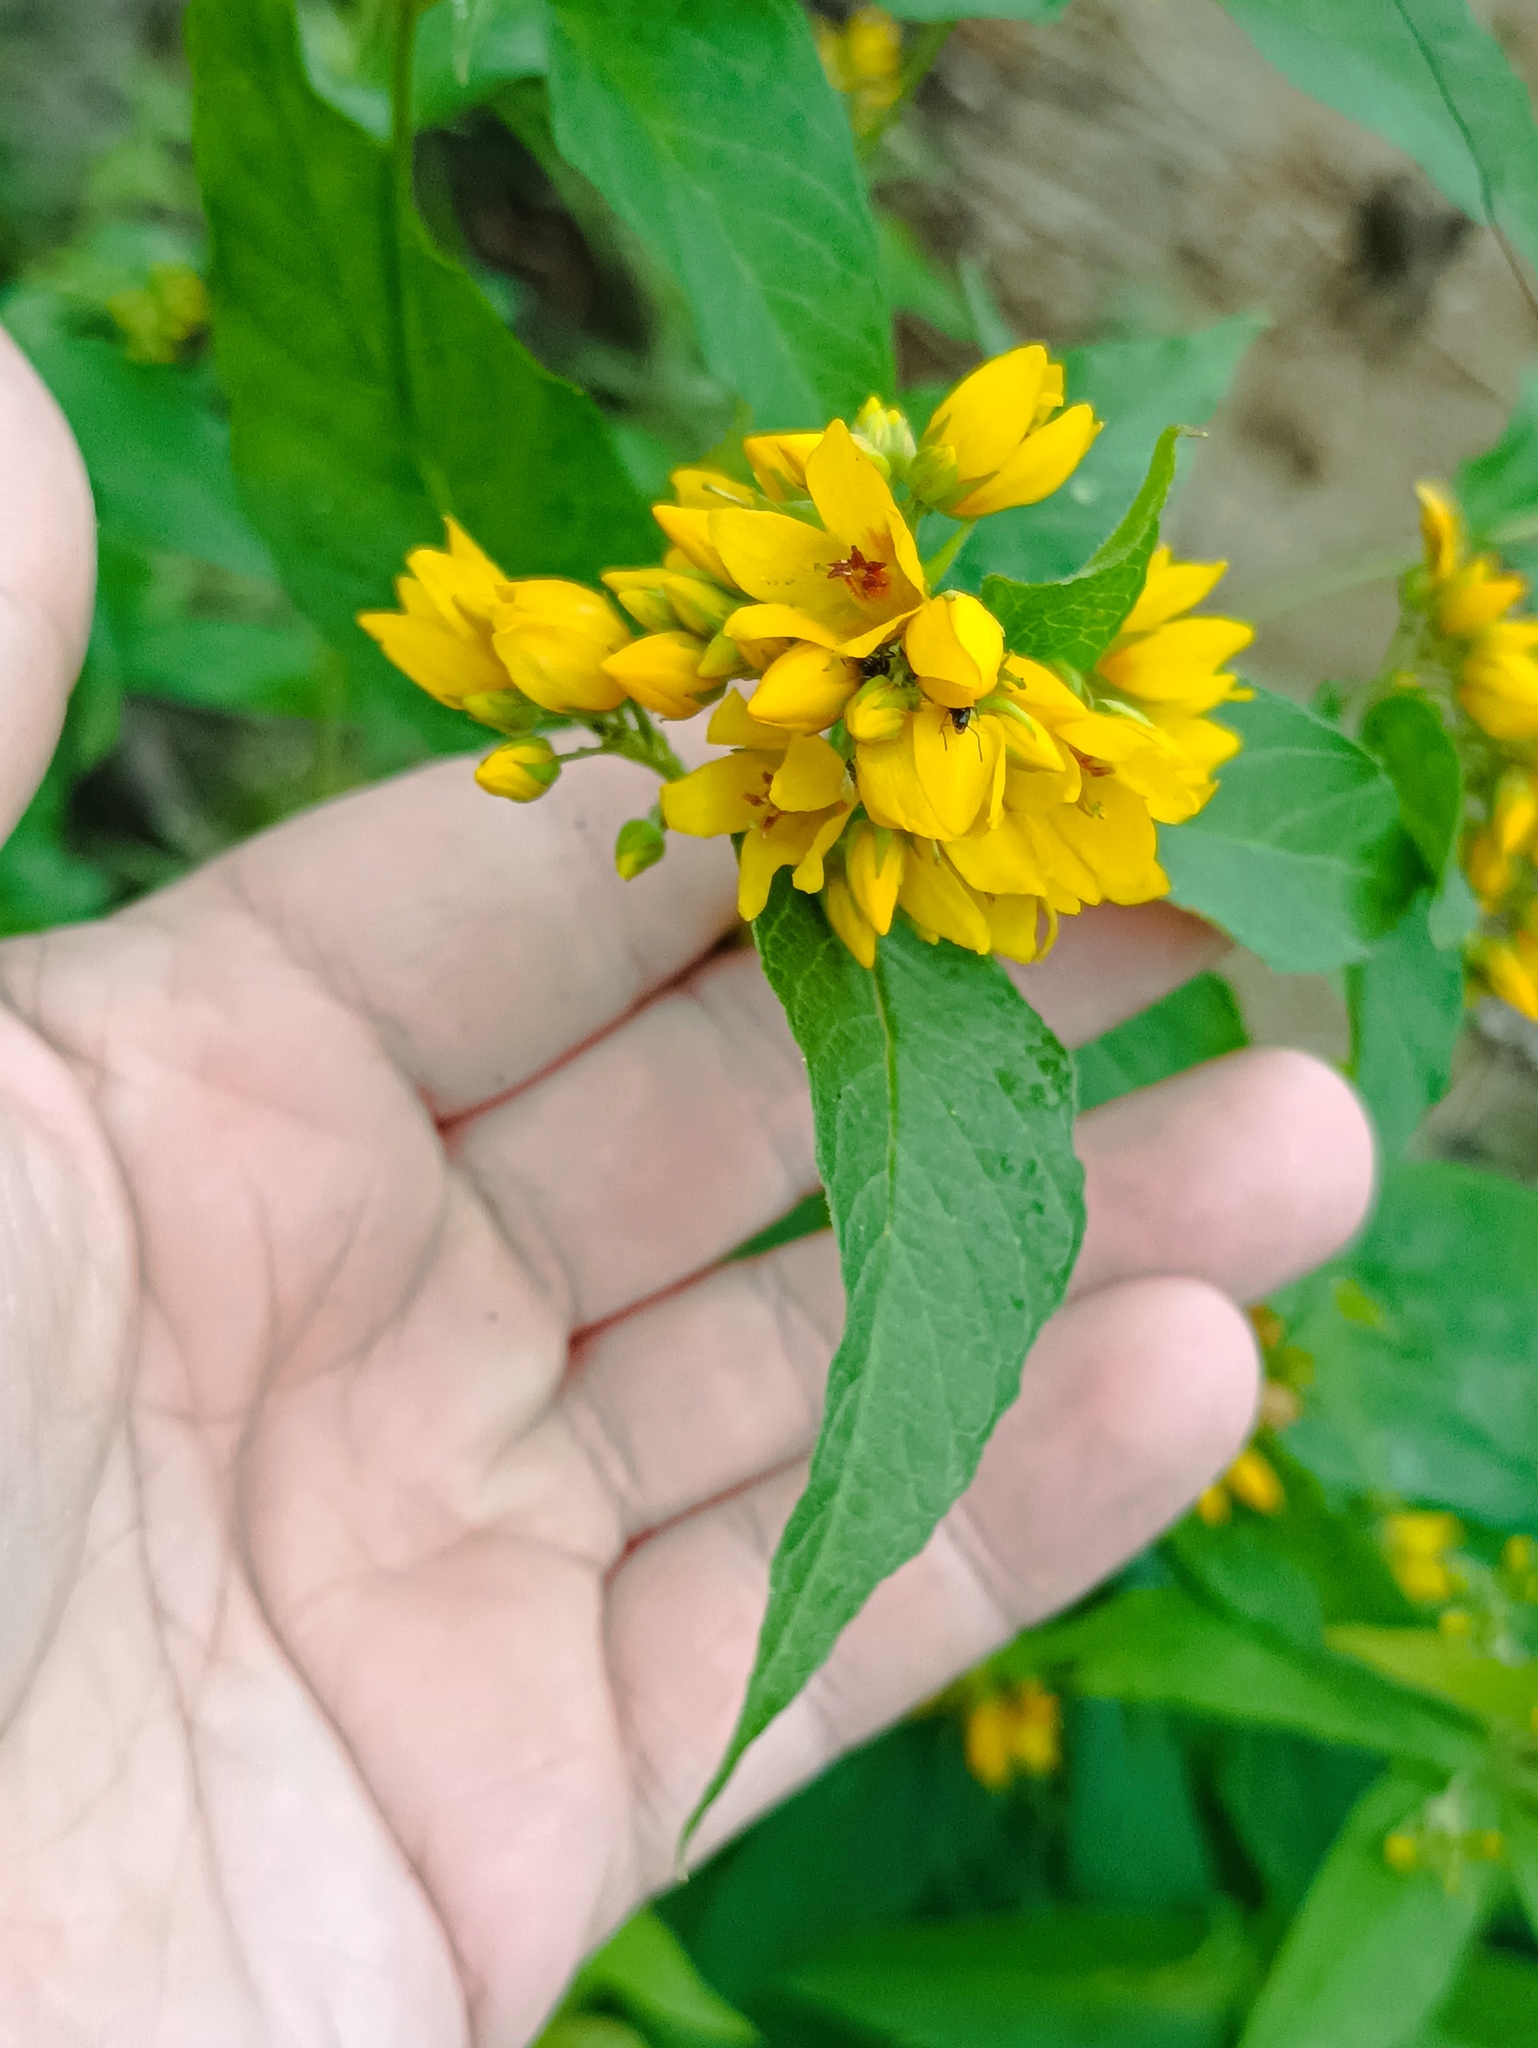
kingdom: Plantae
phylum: Tracheophyta
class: Magnoliopsida
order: Ericales
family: Primulaceae
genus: Lysimachia
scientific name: Lysimachia vulgaris
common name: Yellow loosestrife
